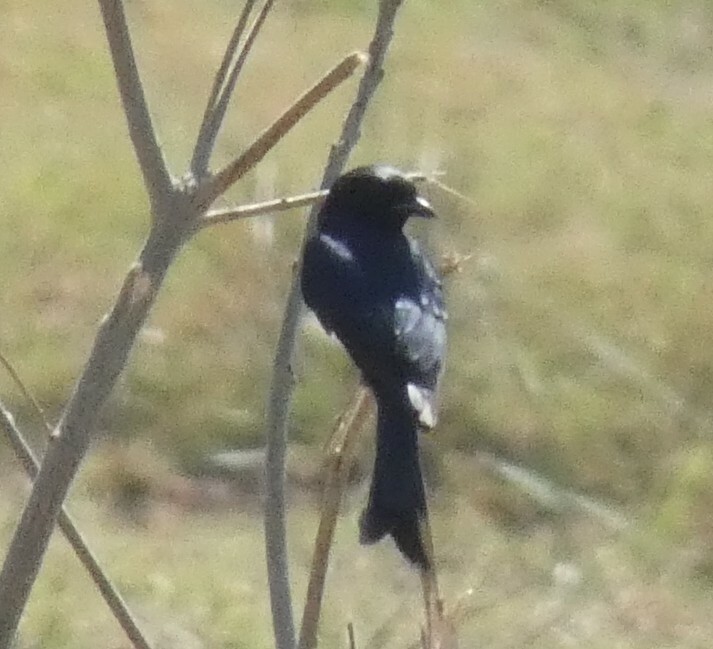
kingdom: Animalia
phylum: Chordata
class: Aves
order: Passeriformes
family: Dicruridae
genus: Dicrurus
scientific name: Dicrurus adsimilis
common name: Fork-tailed drongo
